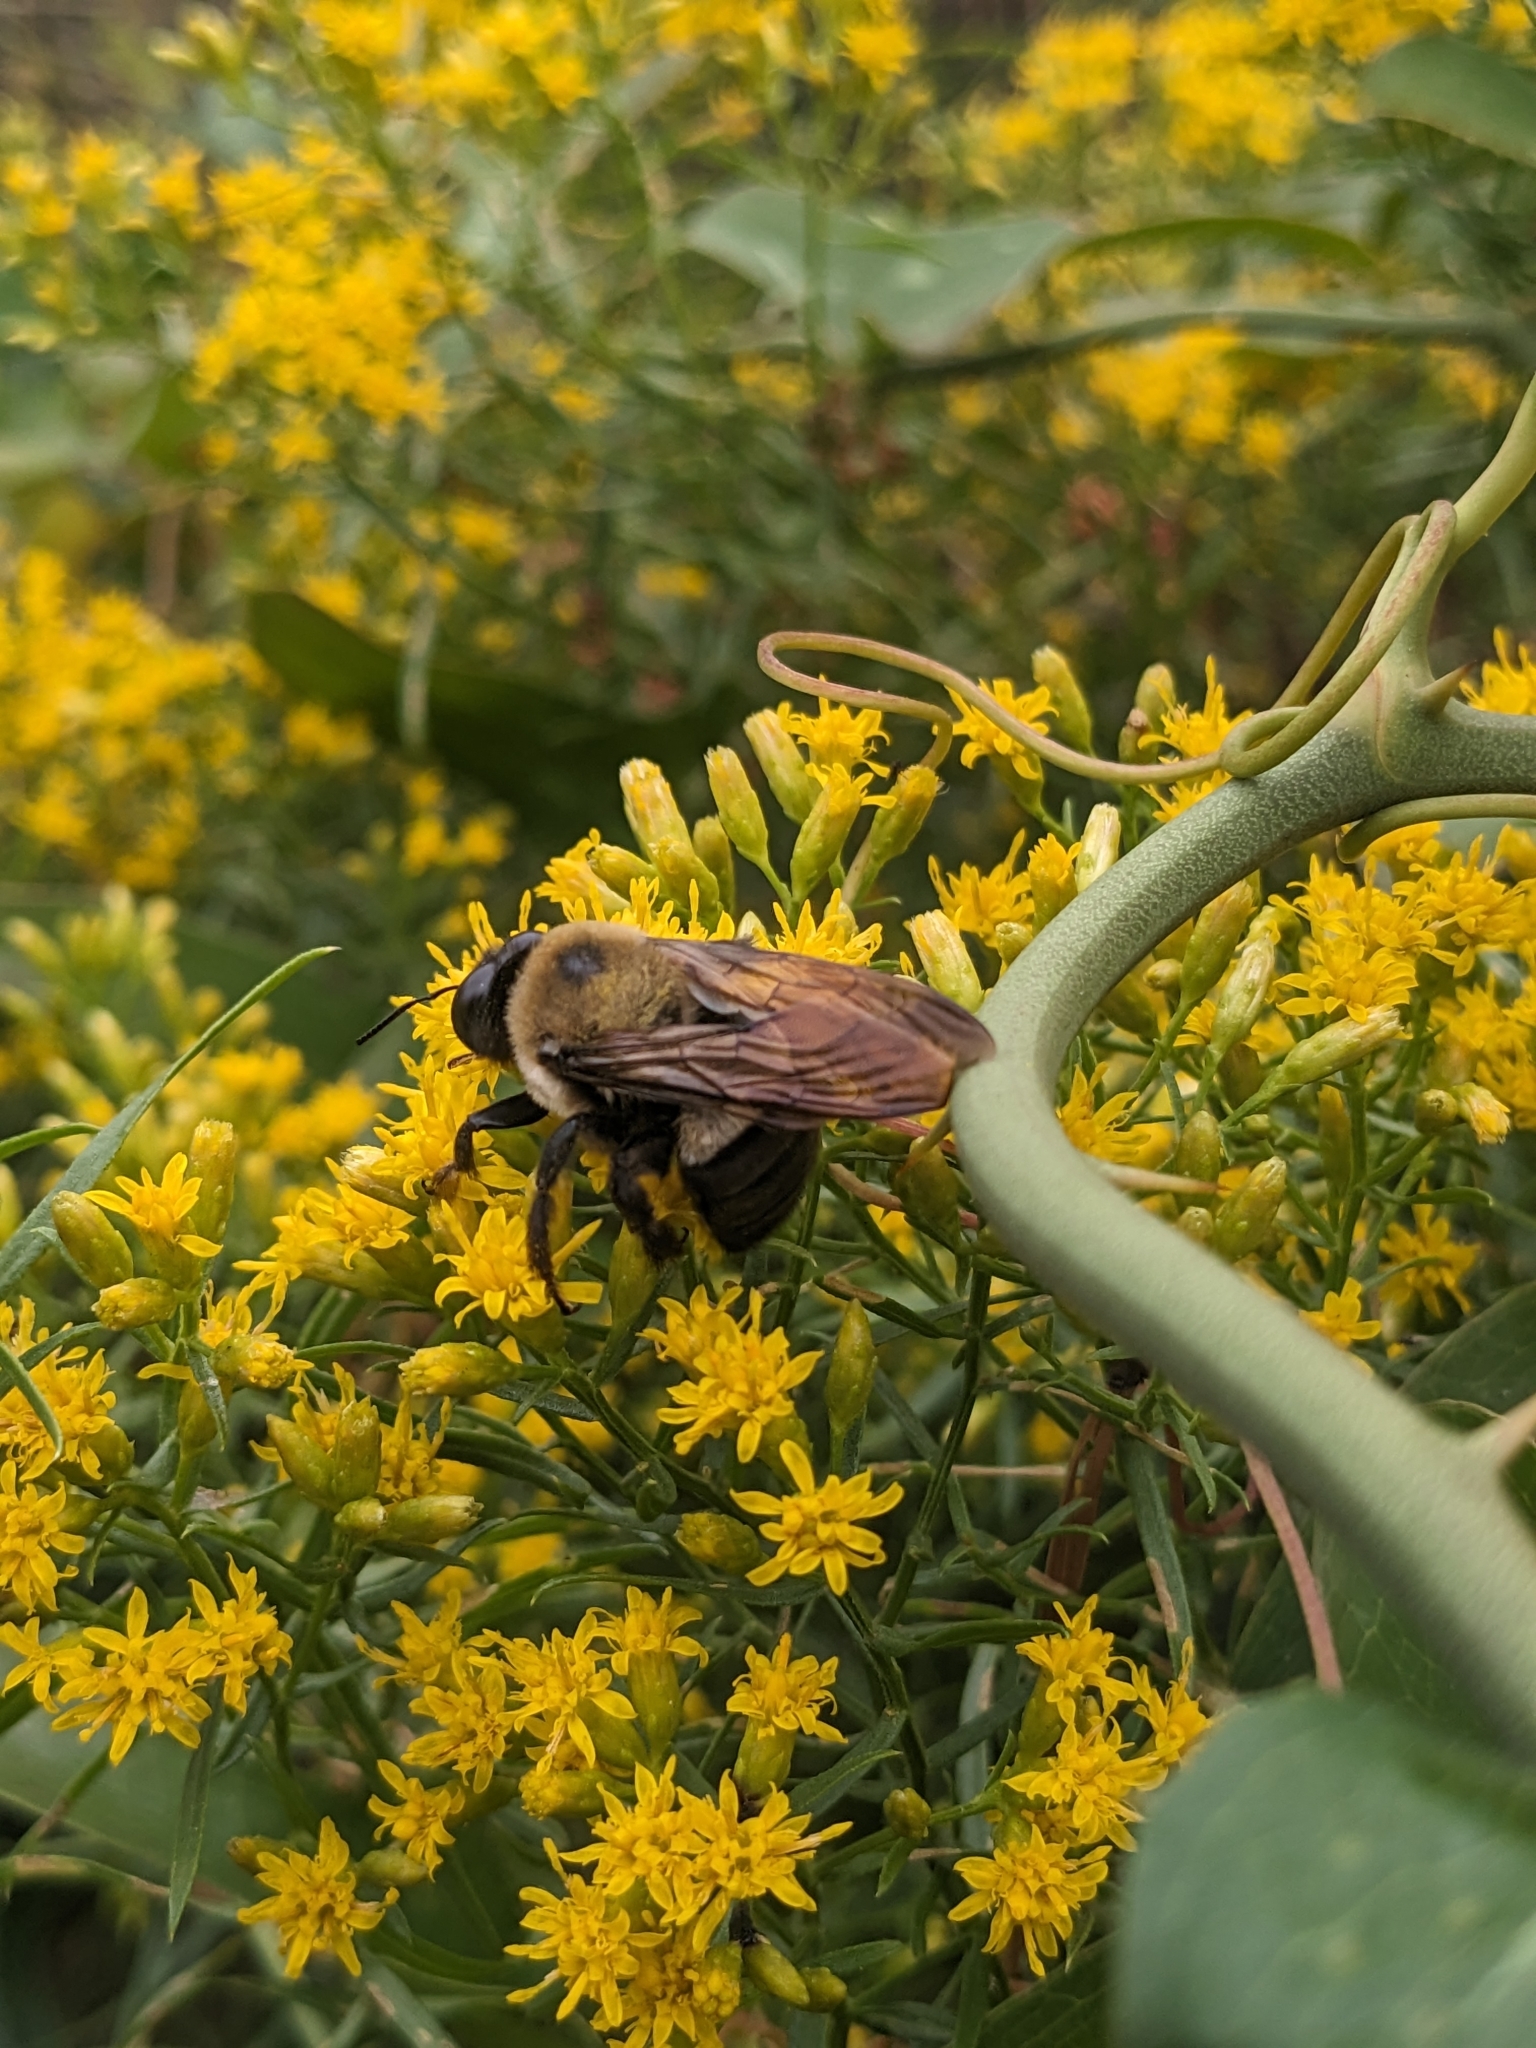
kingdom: Animalia
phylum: Arthropoda
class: Insecta
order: Hymenoptera
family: Apidae
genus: Xylocopa
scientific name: Xylocopa virginica
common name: Carpenter bee
